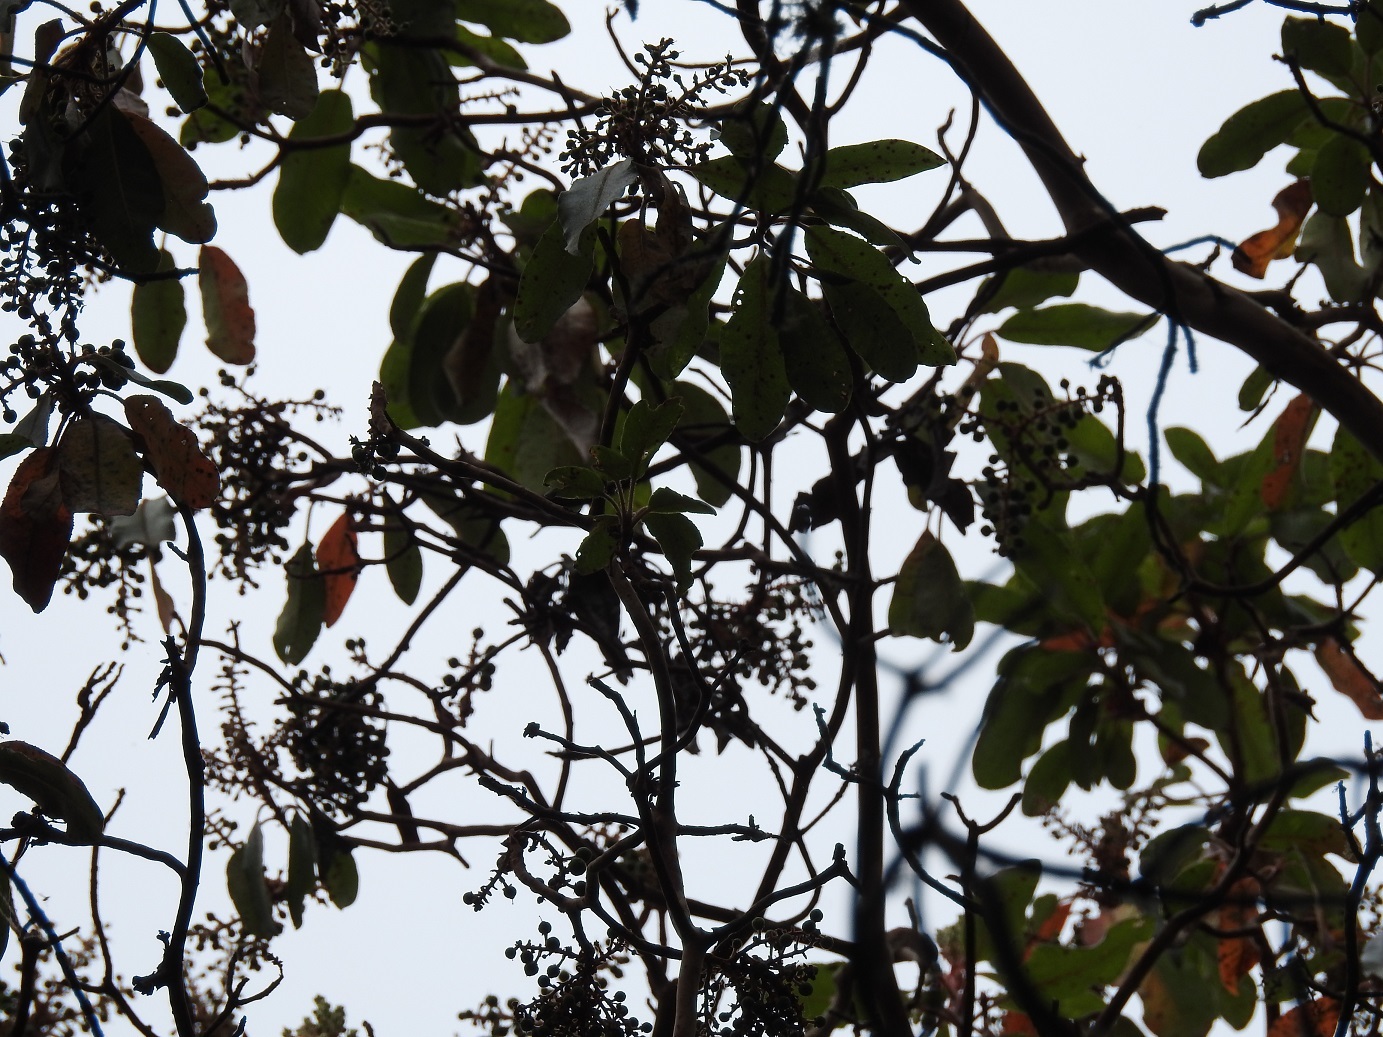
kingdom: Plantae
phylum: Tracheophyta
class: Magnoliopsida
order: Ericales
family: Ericaceae
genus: Arbutus
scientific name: Arbutus xalapensis
